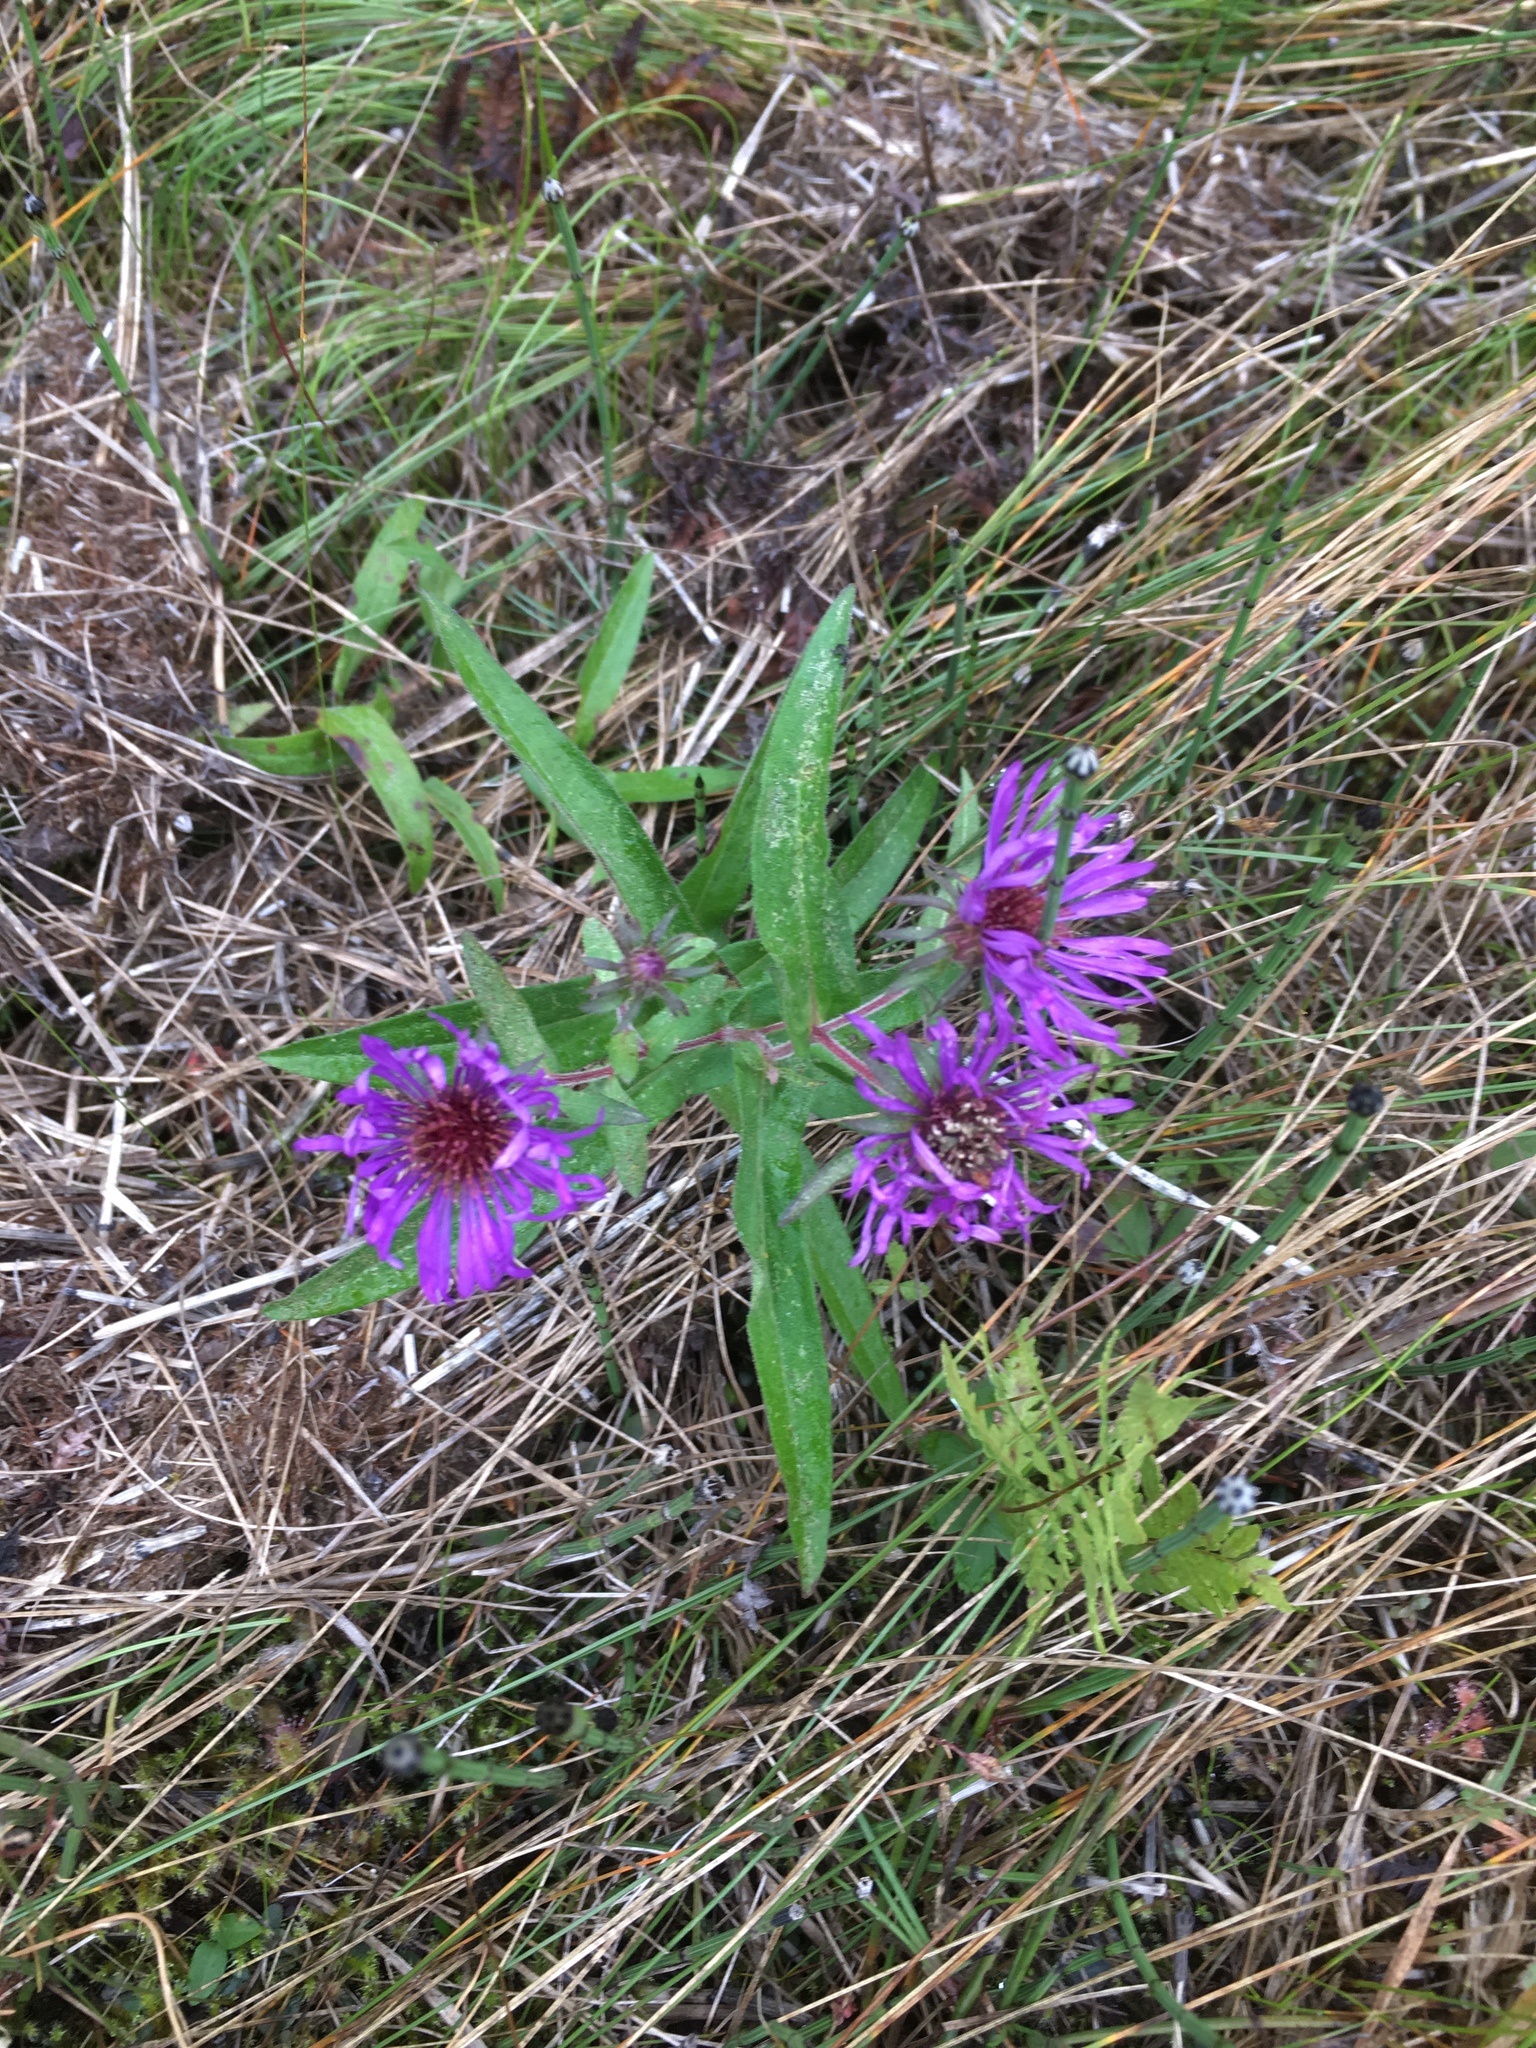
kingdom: Plantae
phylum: Tracheophyta
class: Magnoliopsida
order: Asterales
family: Asteraceae
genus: Symphyotrichum
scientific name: Symphyotrichum novae-angliae
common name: Michaelmas daisy
